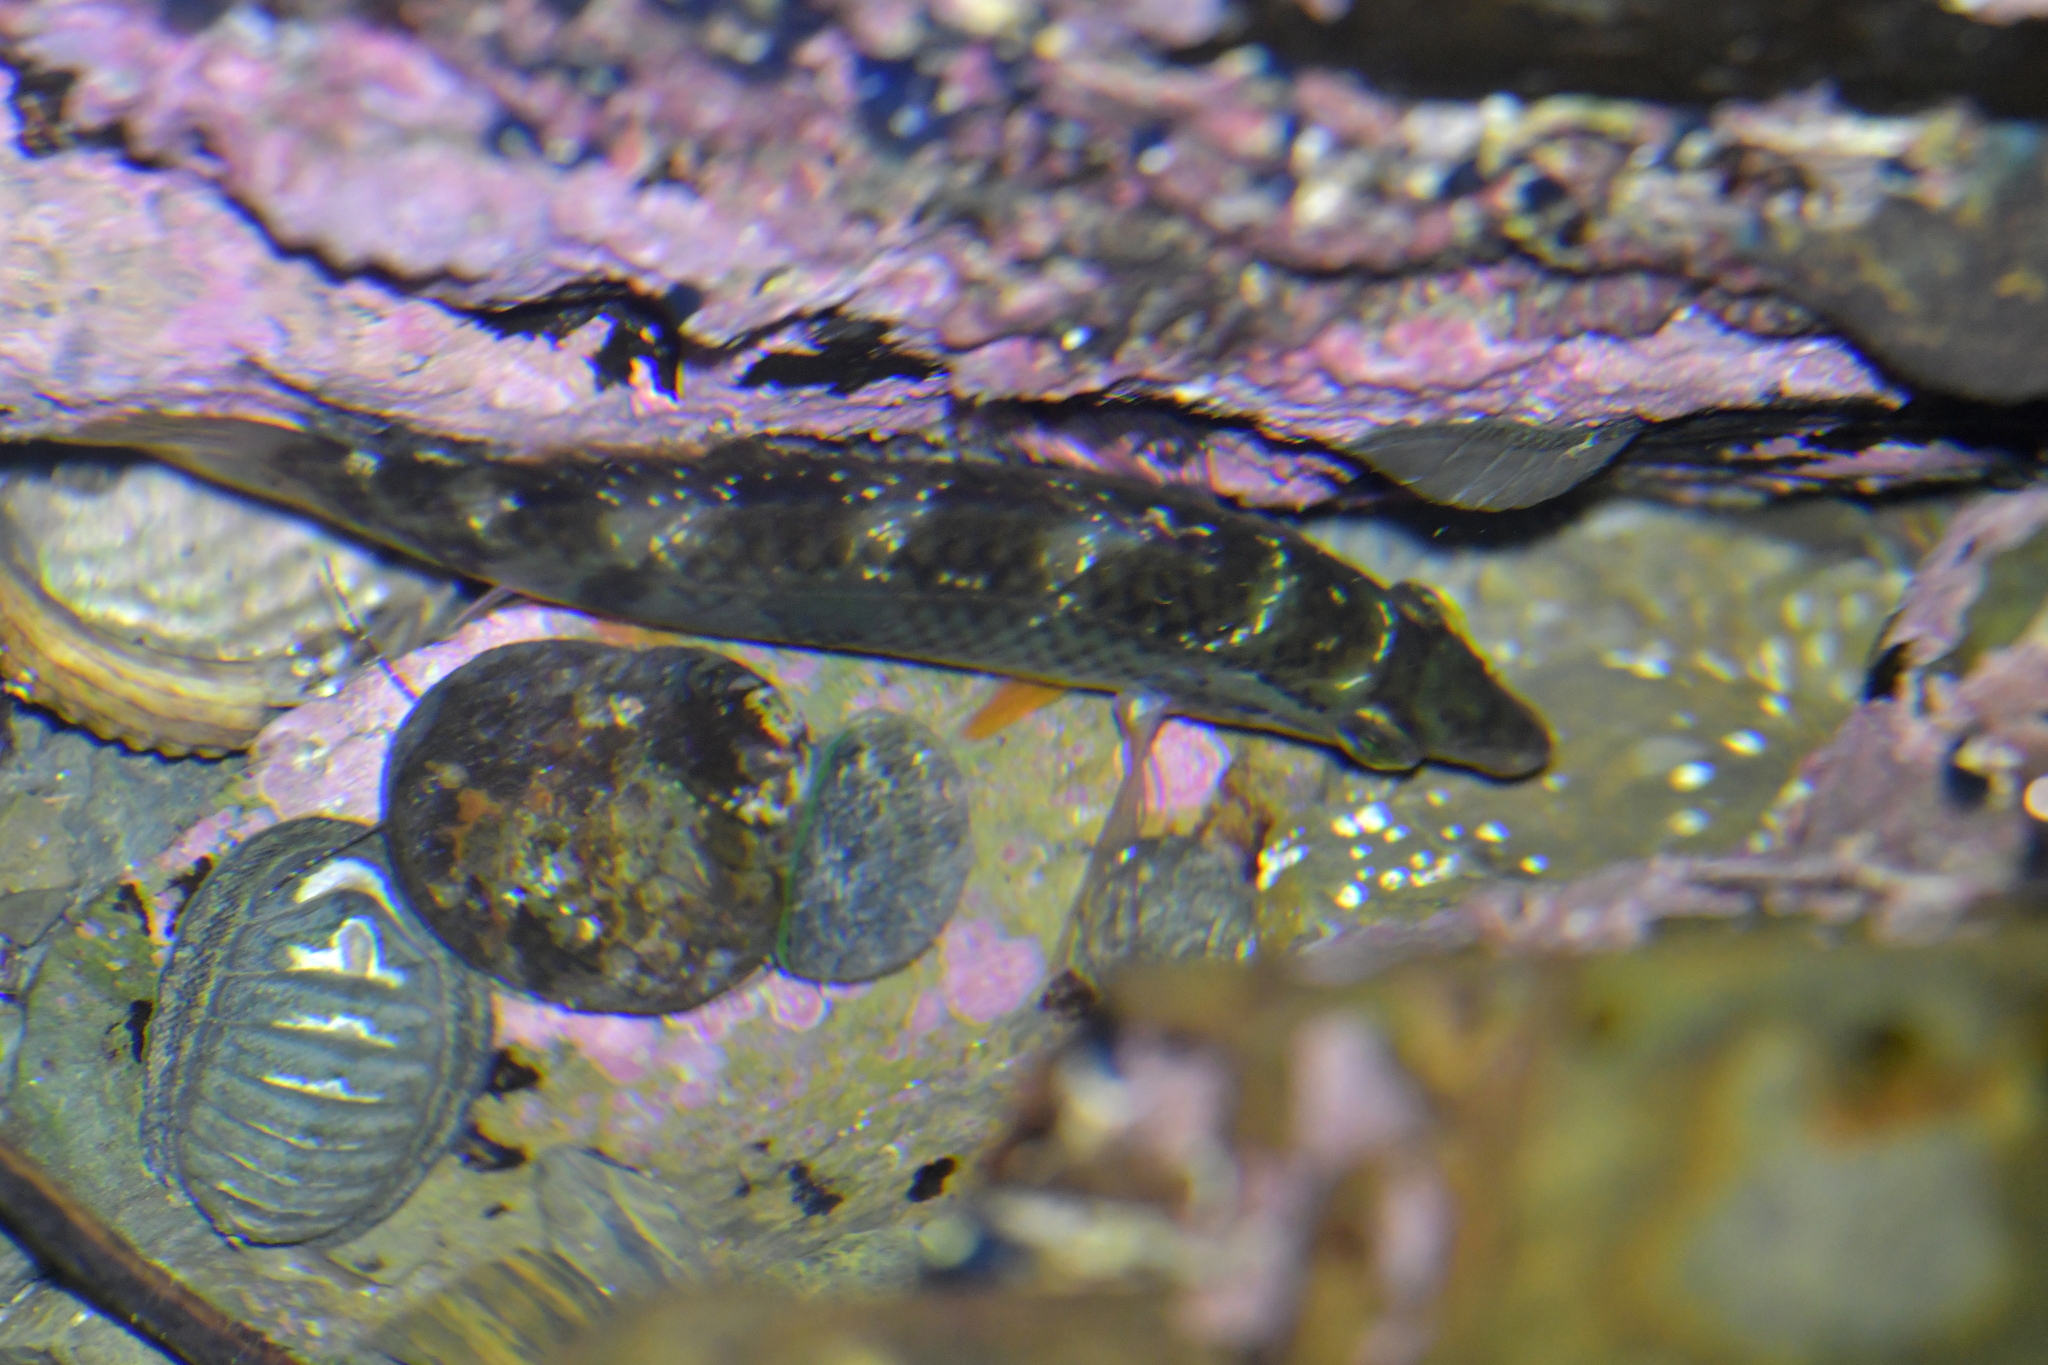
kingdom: Animalia
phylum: Chordata
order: Perciformes
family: Labridae
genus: Notolabrus
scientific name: Notolabrus celidotus
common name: Spotty
